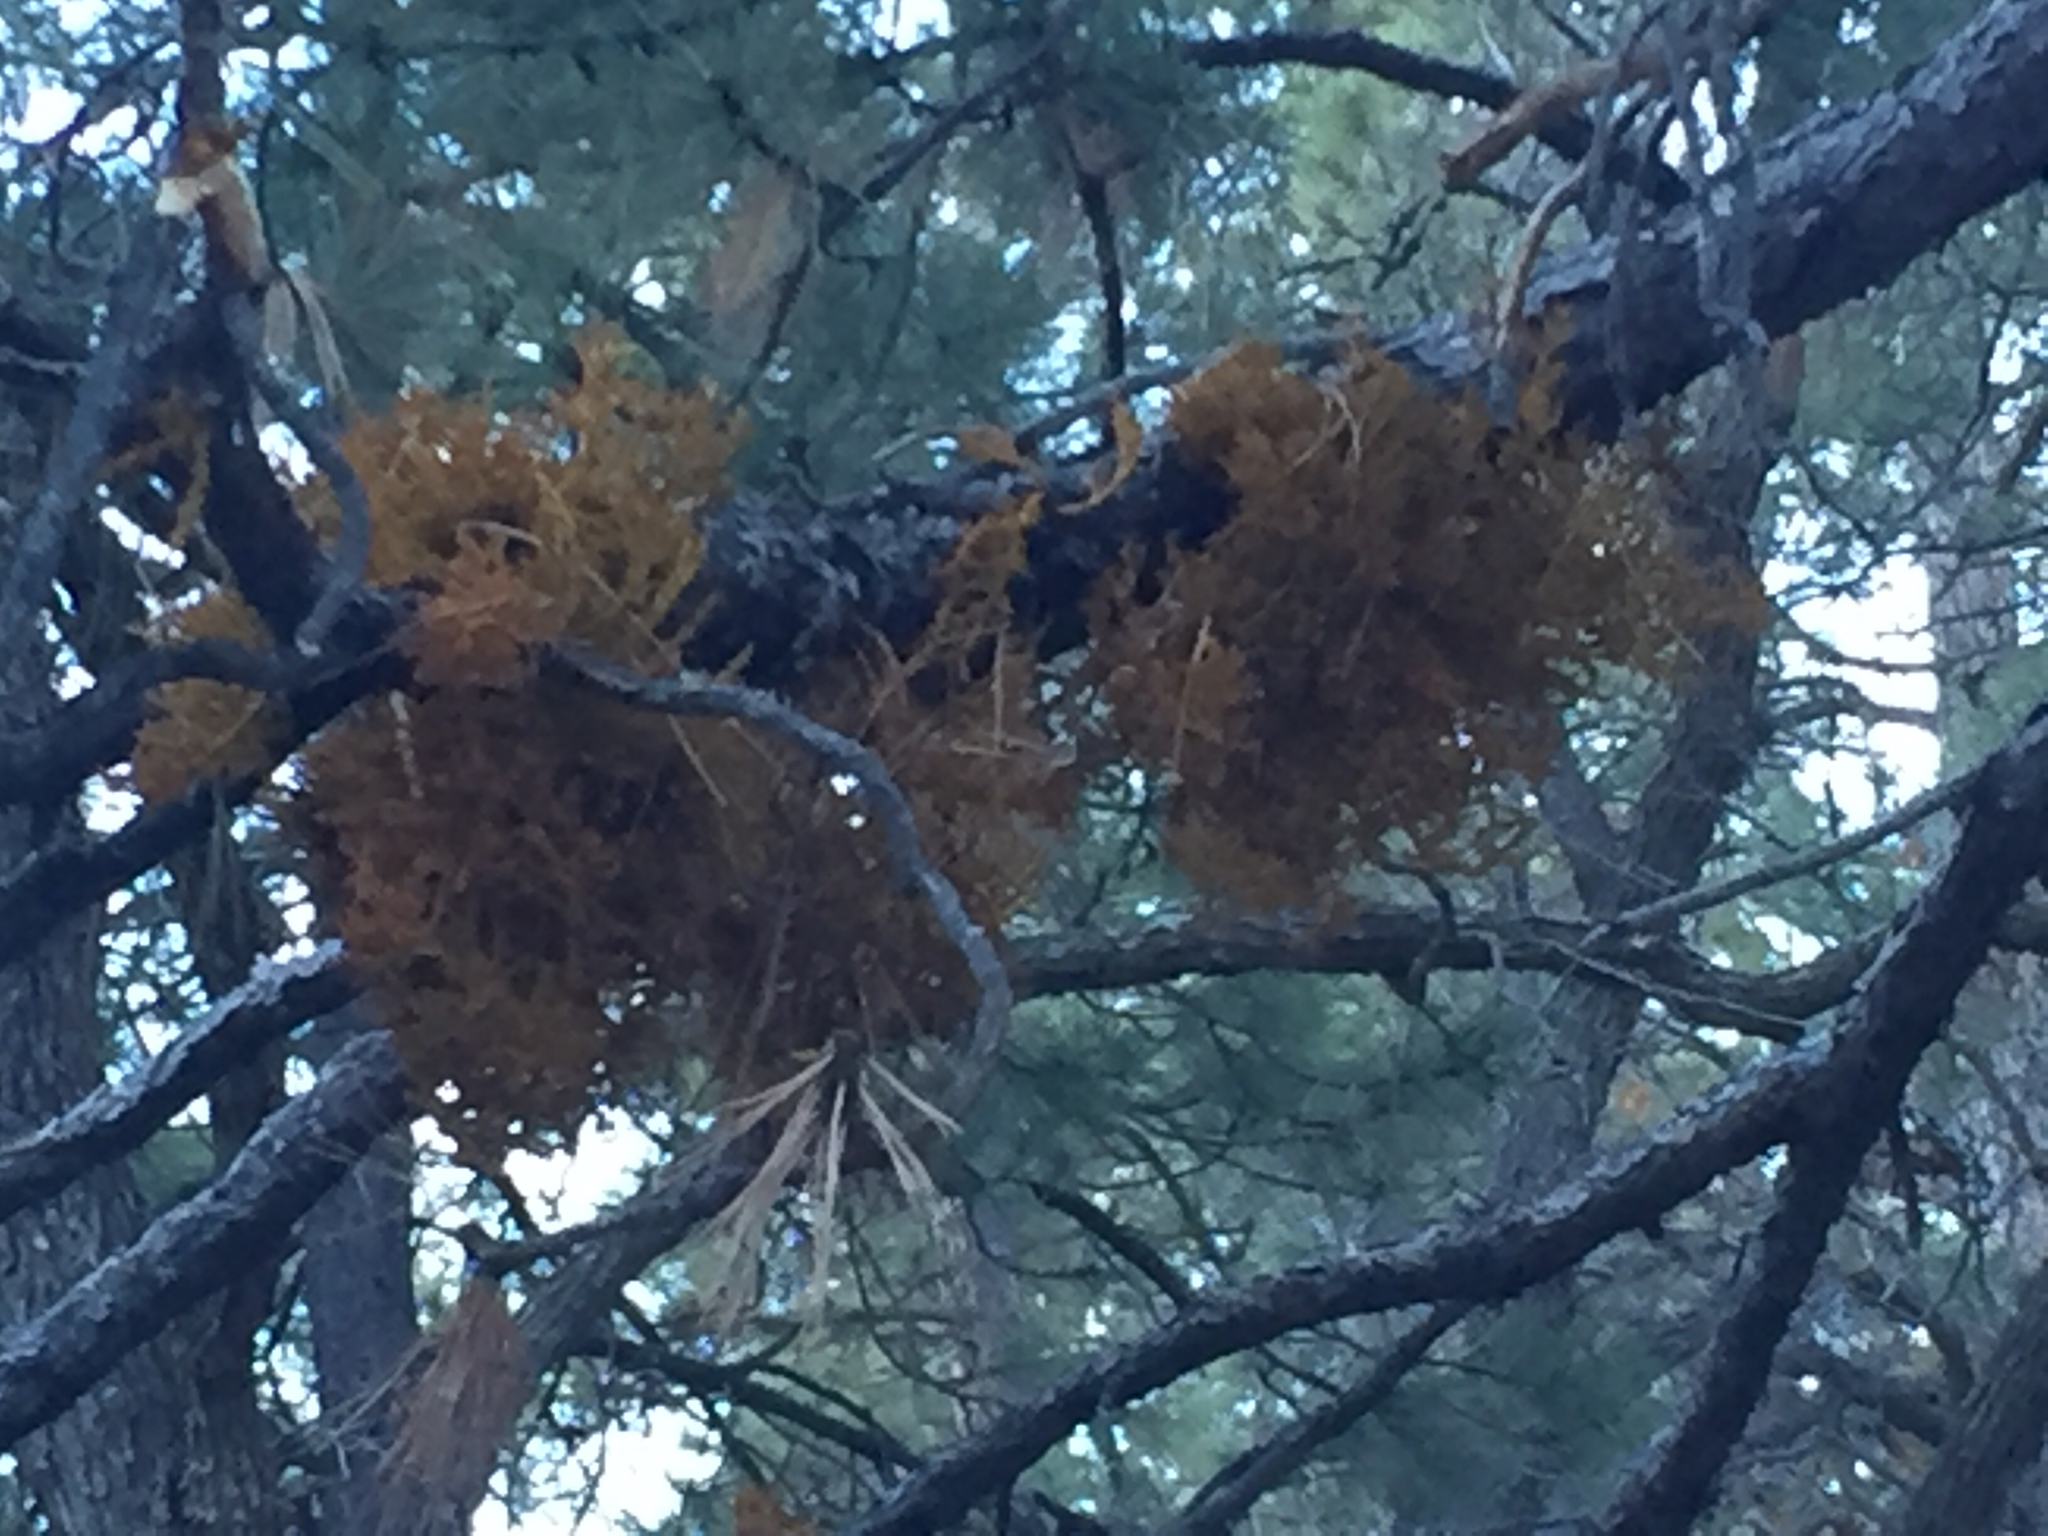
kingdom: Plantae
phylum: Tracheophyta
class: Magnoliopsida
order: Santalales
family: Viscaceae
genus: Arceuthobium
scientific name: Arceuthobium vaginatum
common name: Southwestern dwarf-mistletoe
